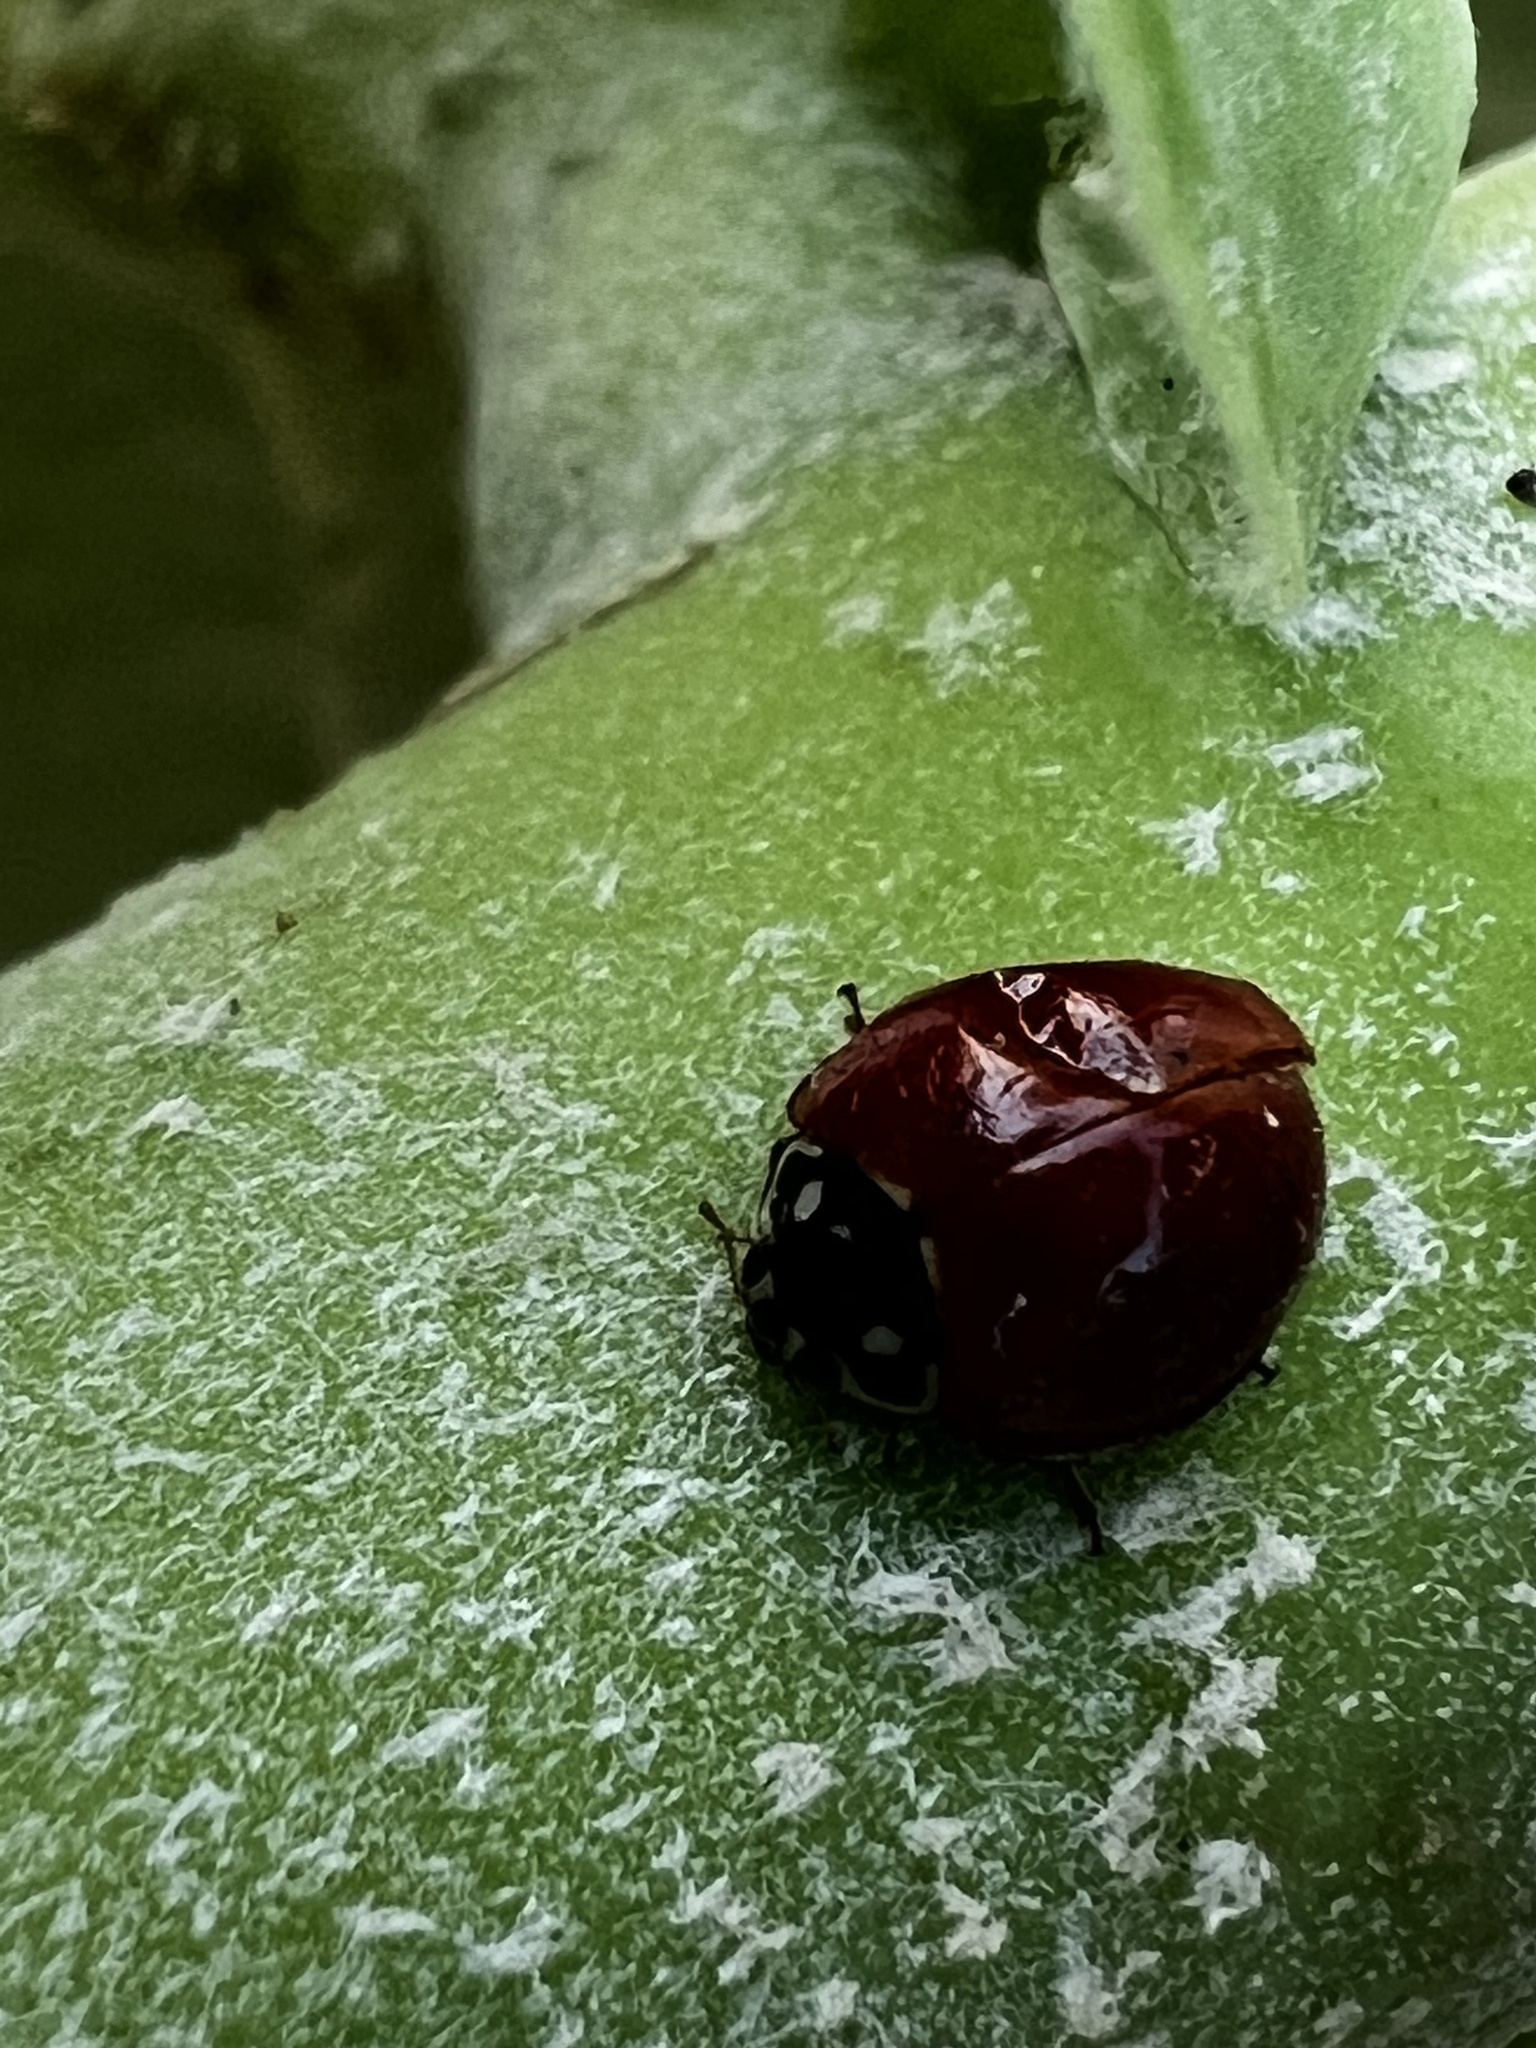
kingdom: Animalia
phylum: Arthropoda
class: Insecta
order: Coleoptera
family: Coccinellidae
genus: Cycloneda
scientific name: Cycloneda sanguinea
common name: Ladybird beetle
